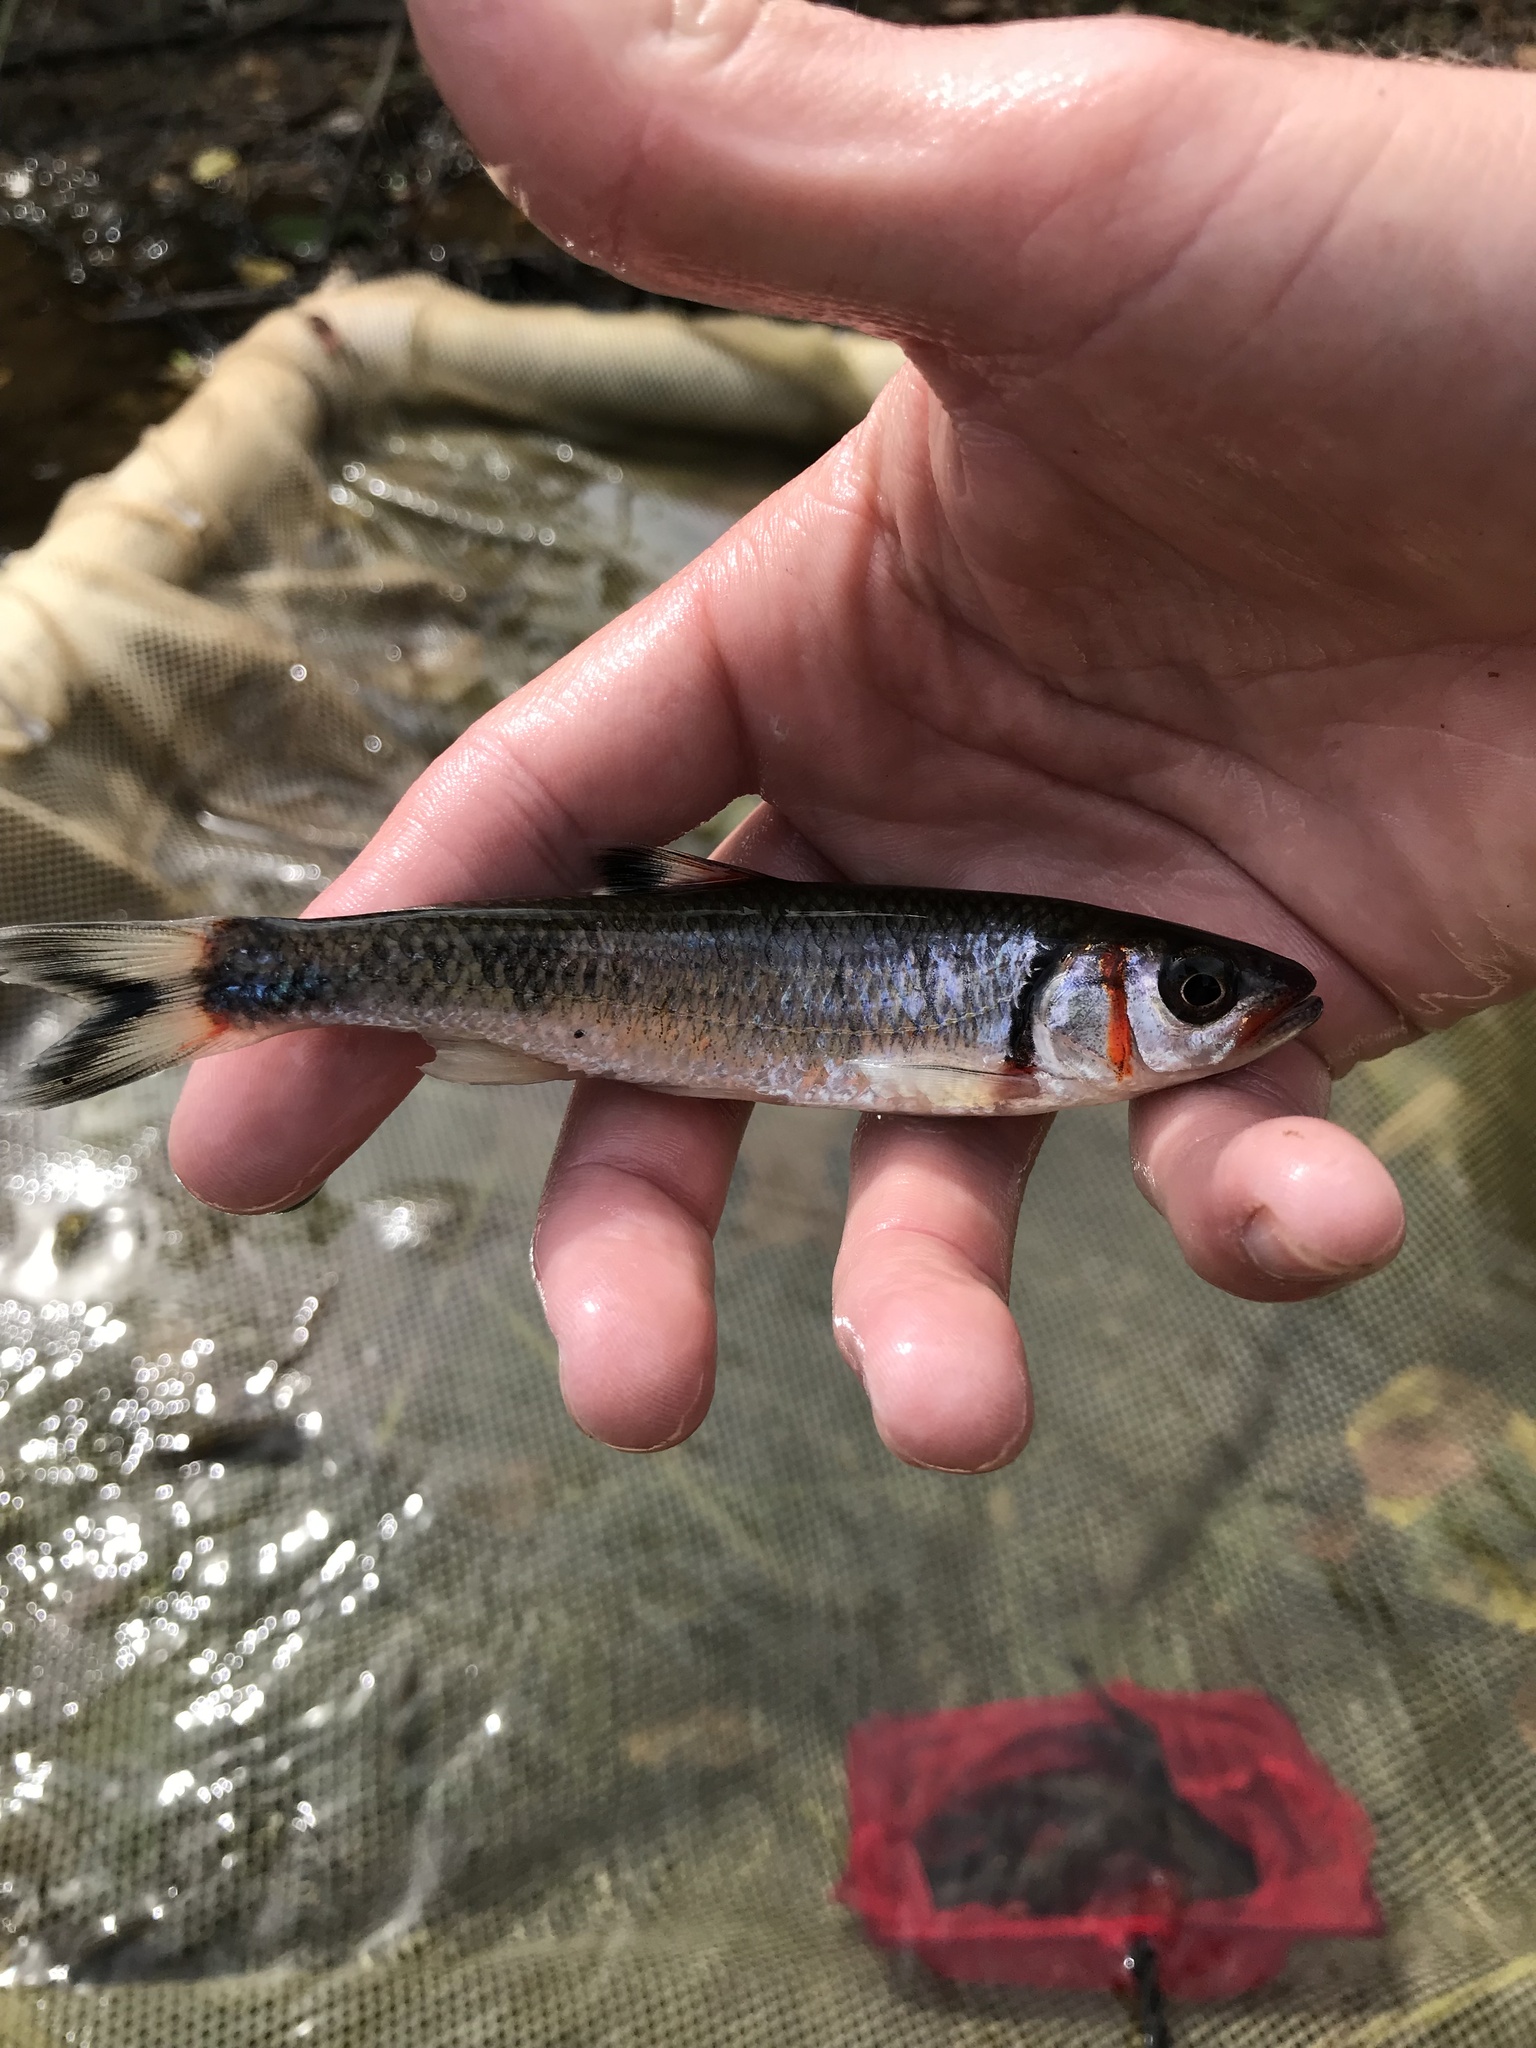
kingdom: Animalia
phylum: Chordata
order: Cypriniformes
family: Cyprinidae
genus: Luxilus
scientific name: Luxilus
